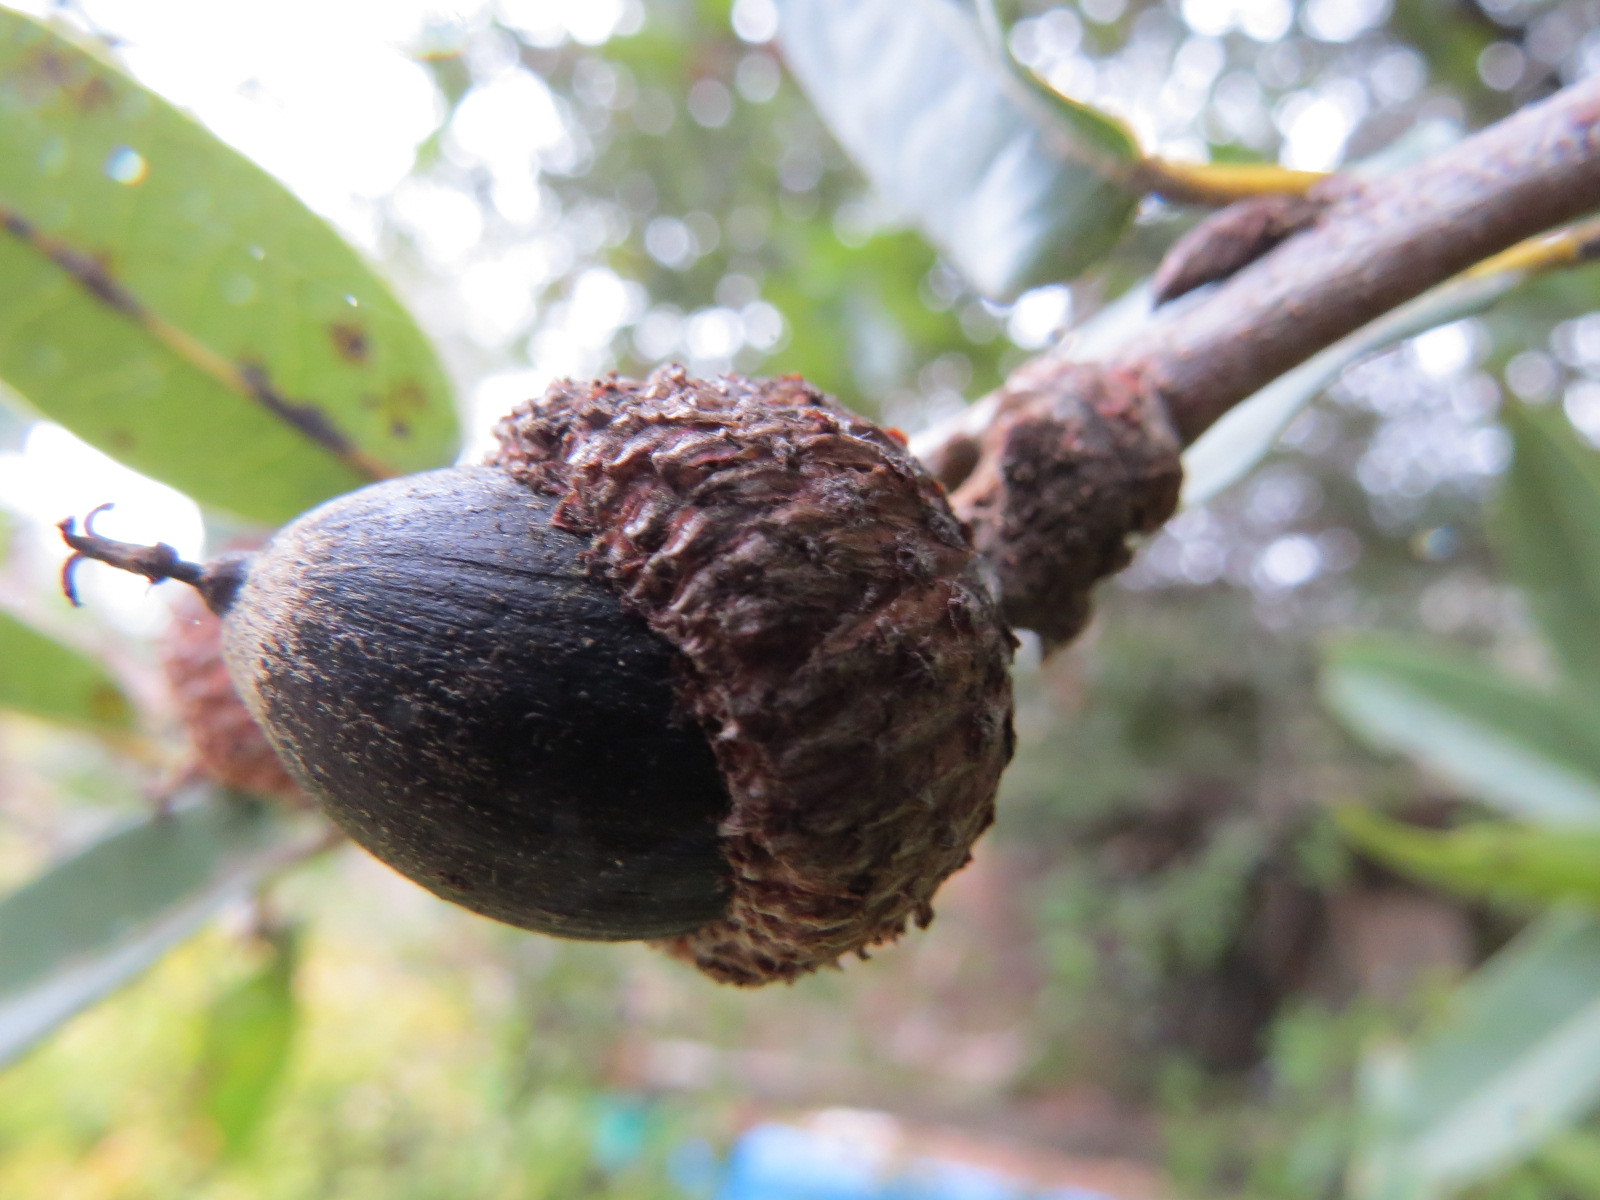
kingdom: Plantae
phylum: Tracheophyta
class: Magnoliopsida
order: Fagales
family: Fagaceae
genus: Quercus
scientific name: Quercus parvula
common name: Santa cruz island oak
